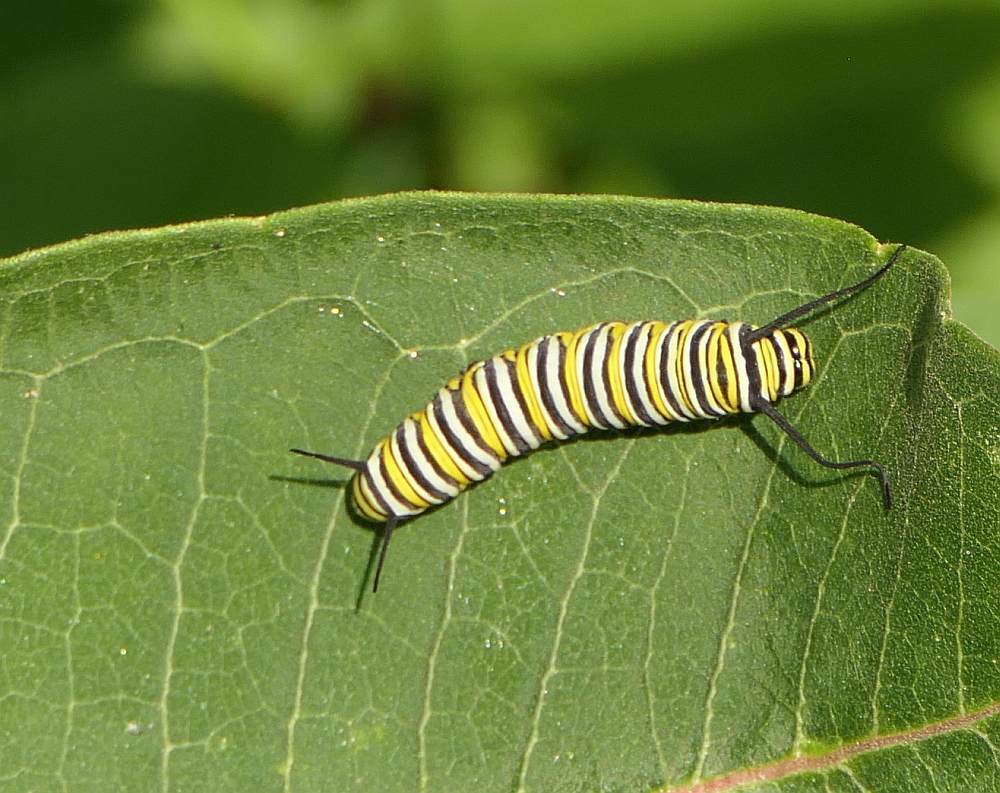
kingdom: Animalia
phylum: Arthropoda
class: Insecta
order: Lepidoptera
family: Nymphalidae
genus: Danaus
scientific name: Danaus plexippus
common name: Monarch
